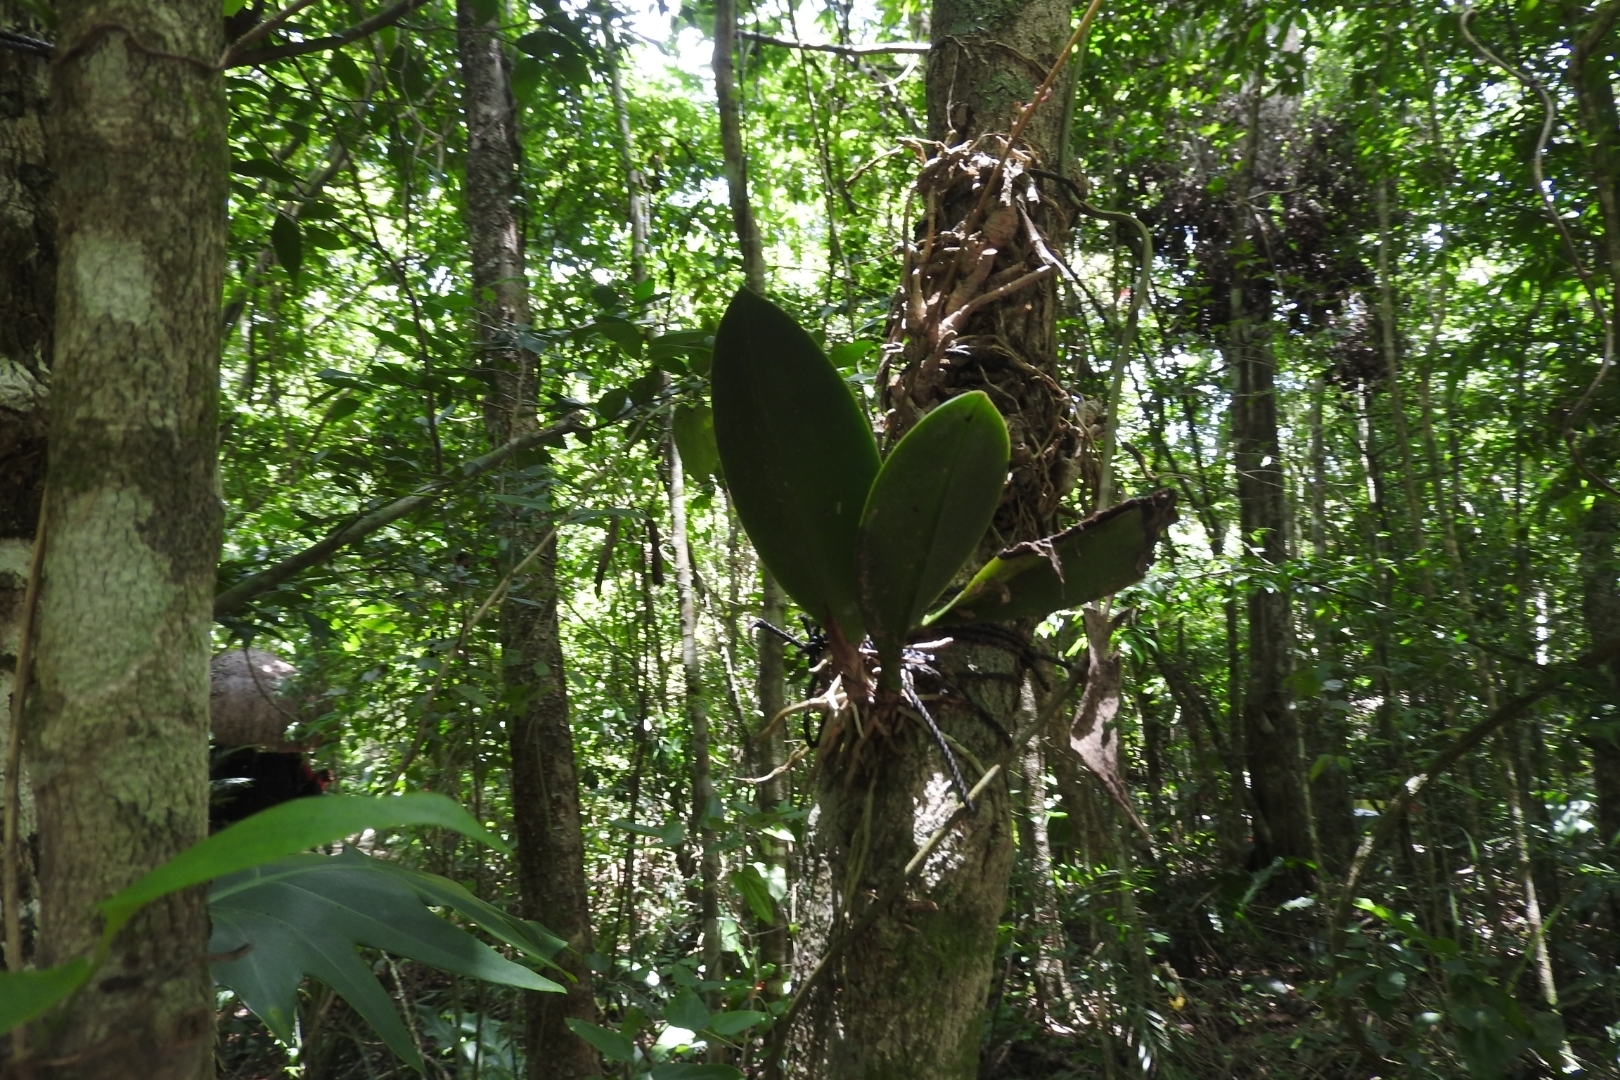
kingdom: Plantae
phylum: Tracheophyta
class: Liliopsida
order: Asparagales
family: Orchidaceae
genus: Trichocentrum
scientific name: Trichocentrum oerstedii
